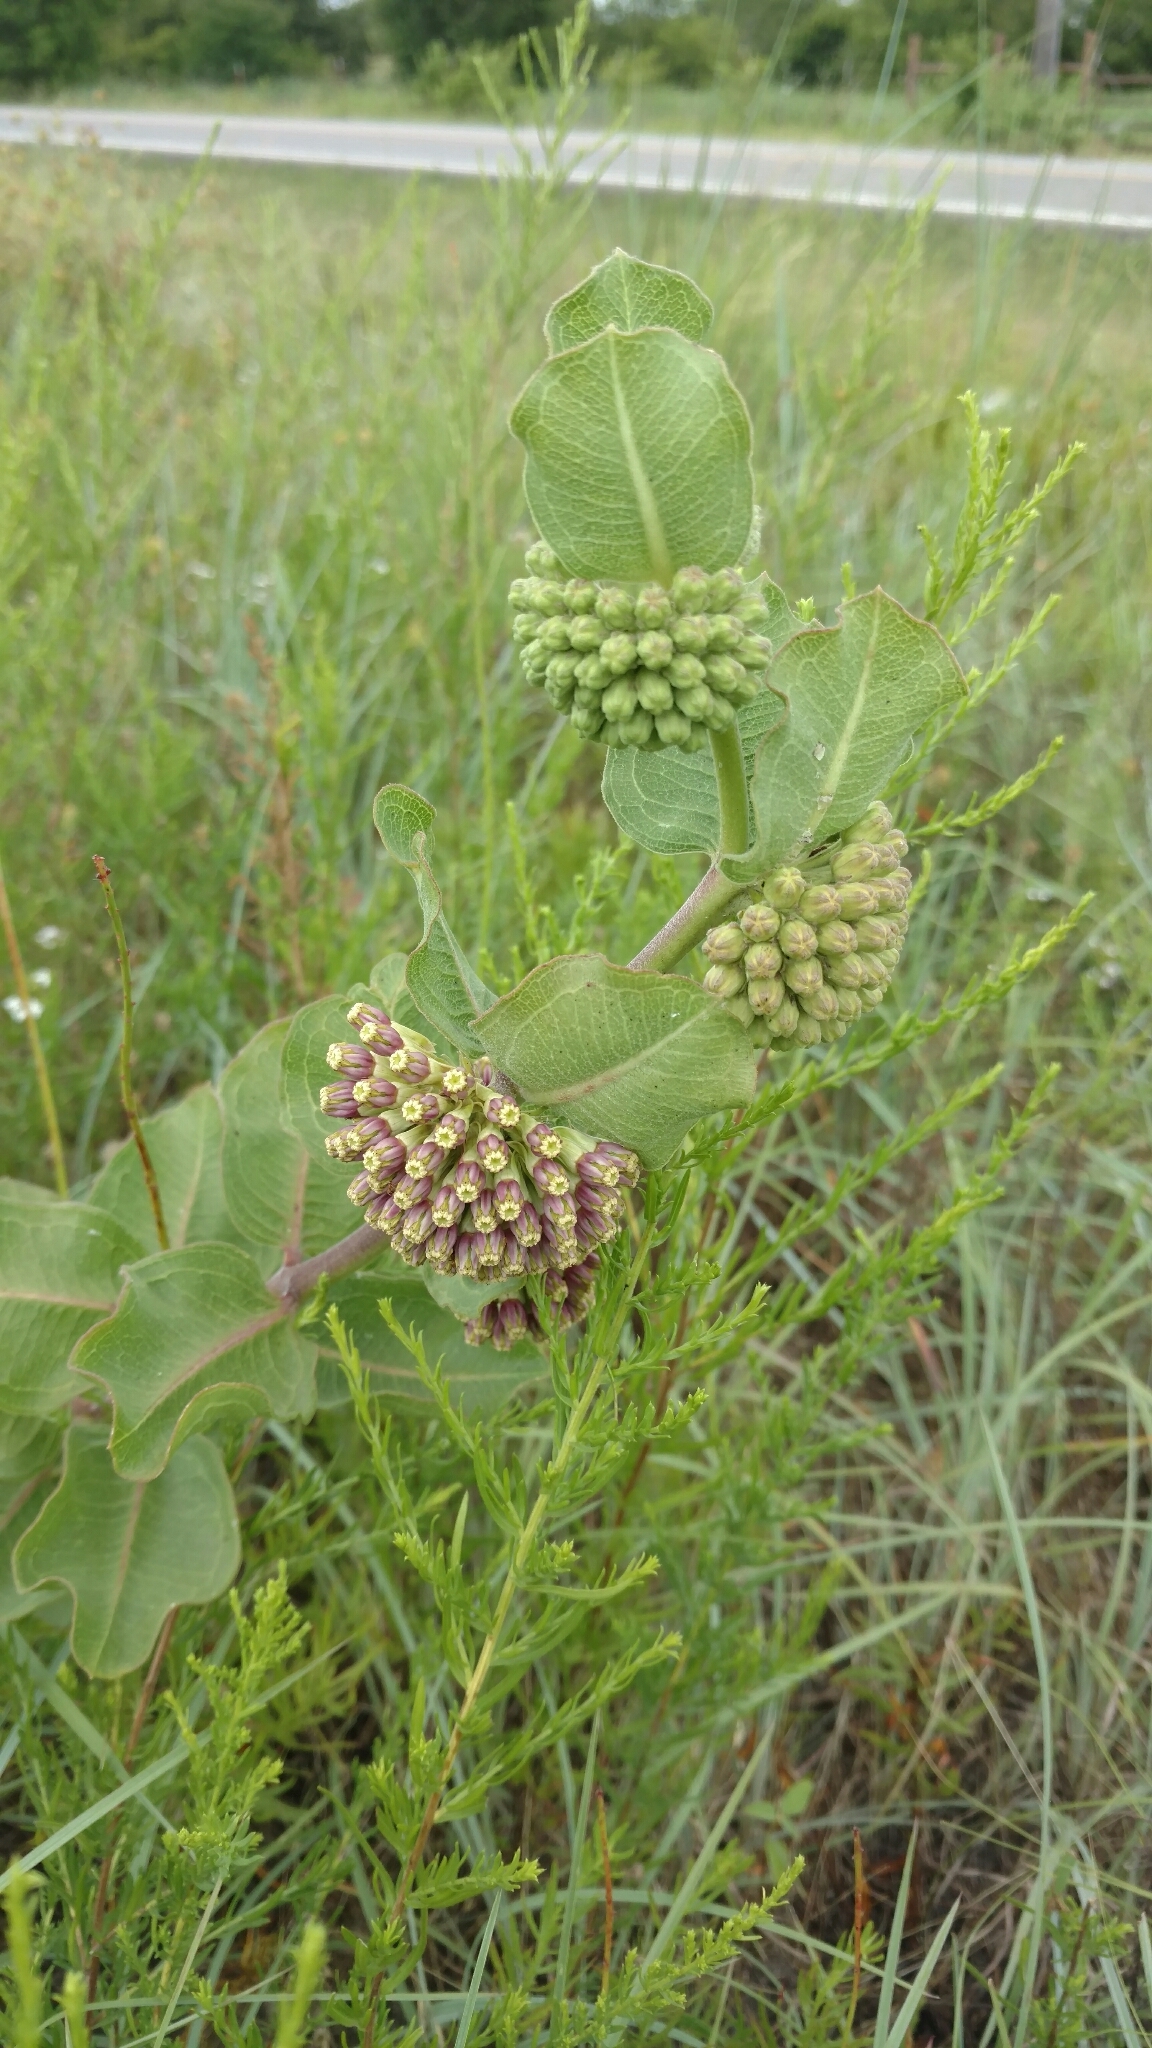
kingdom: Plantae
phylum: Tracheophyta
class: Magnoliopsida
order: Gentianales
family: Apocynaceae
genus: Asclepias
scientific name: Asclepias viridiflora
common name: Green comet milkweed
